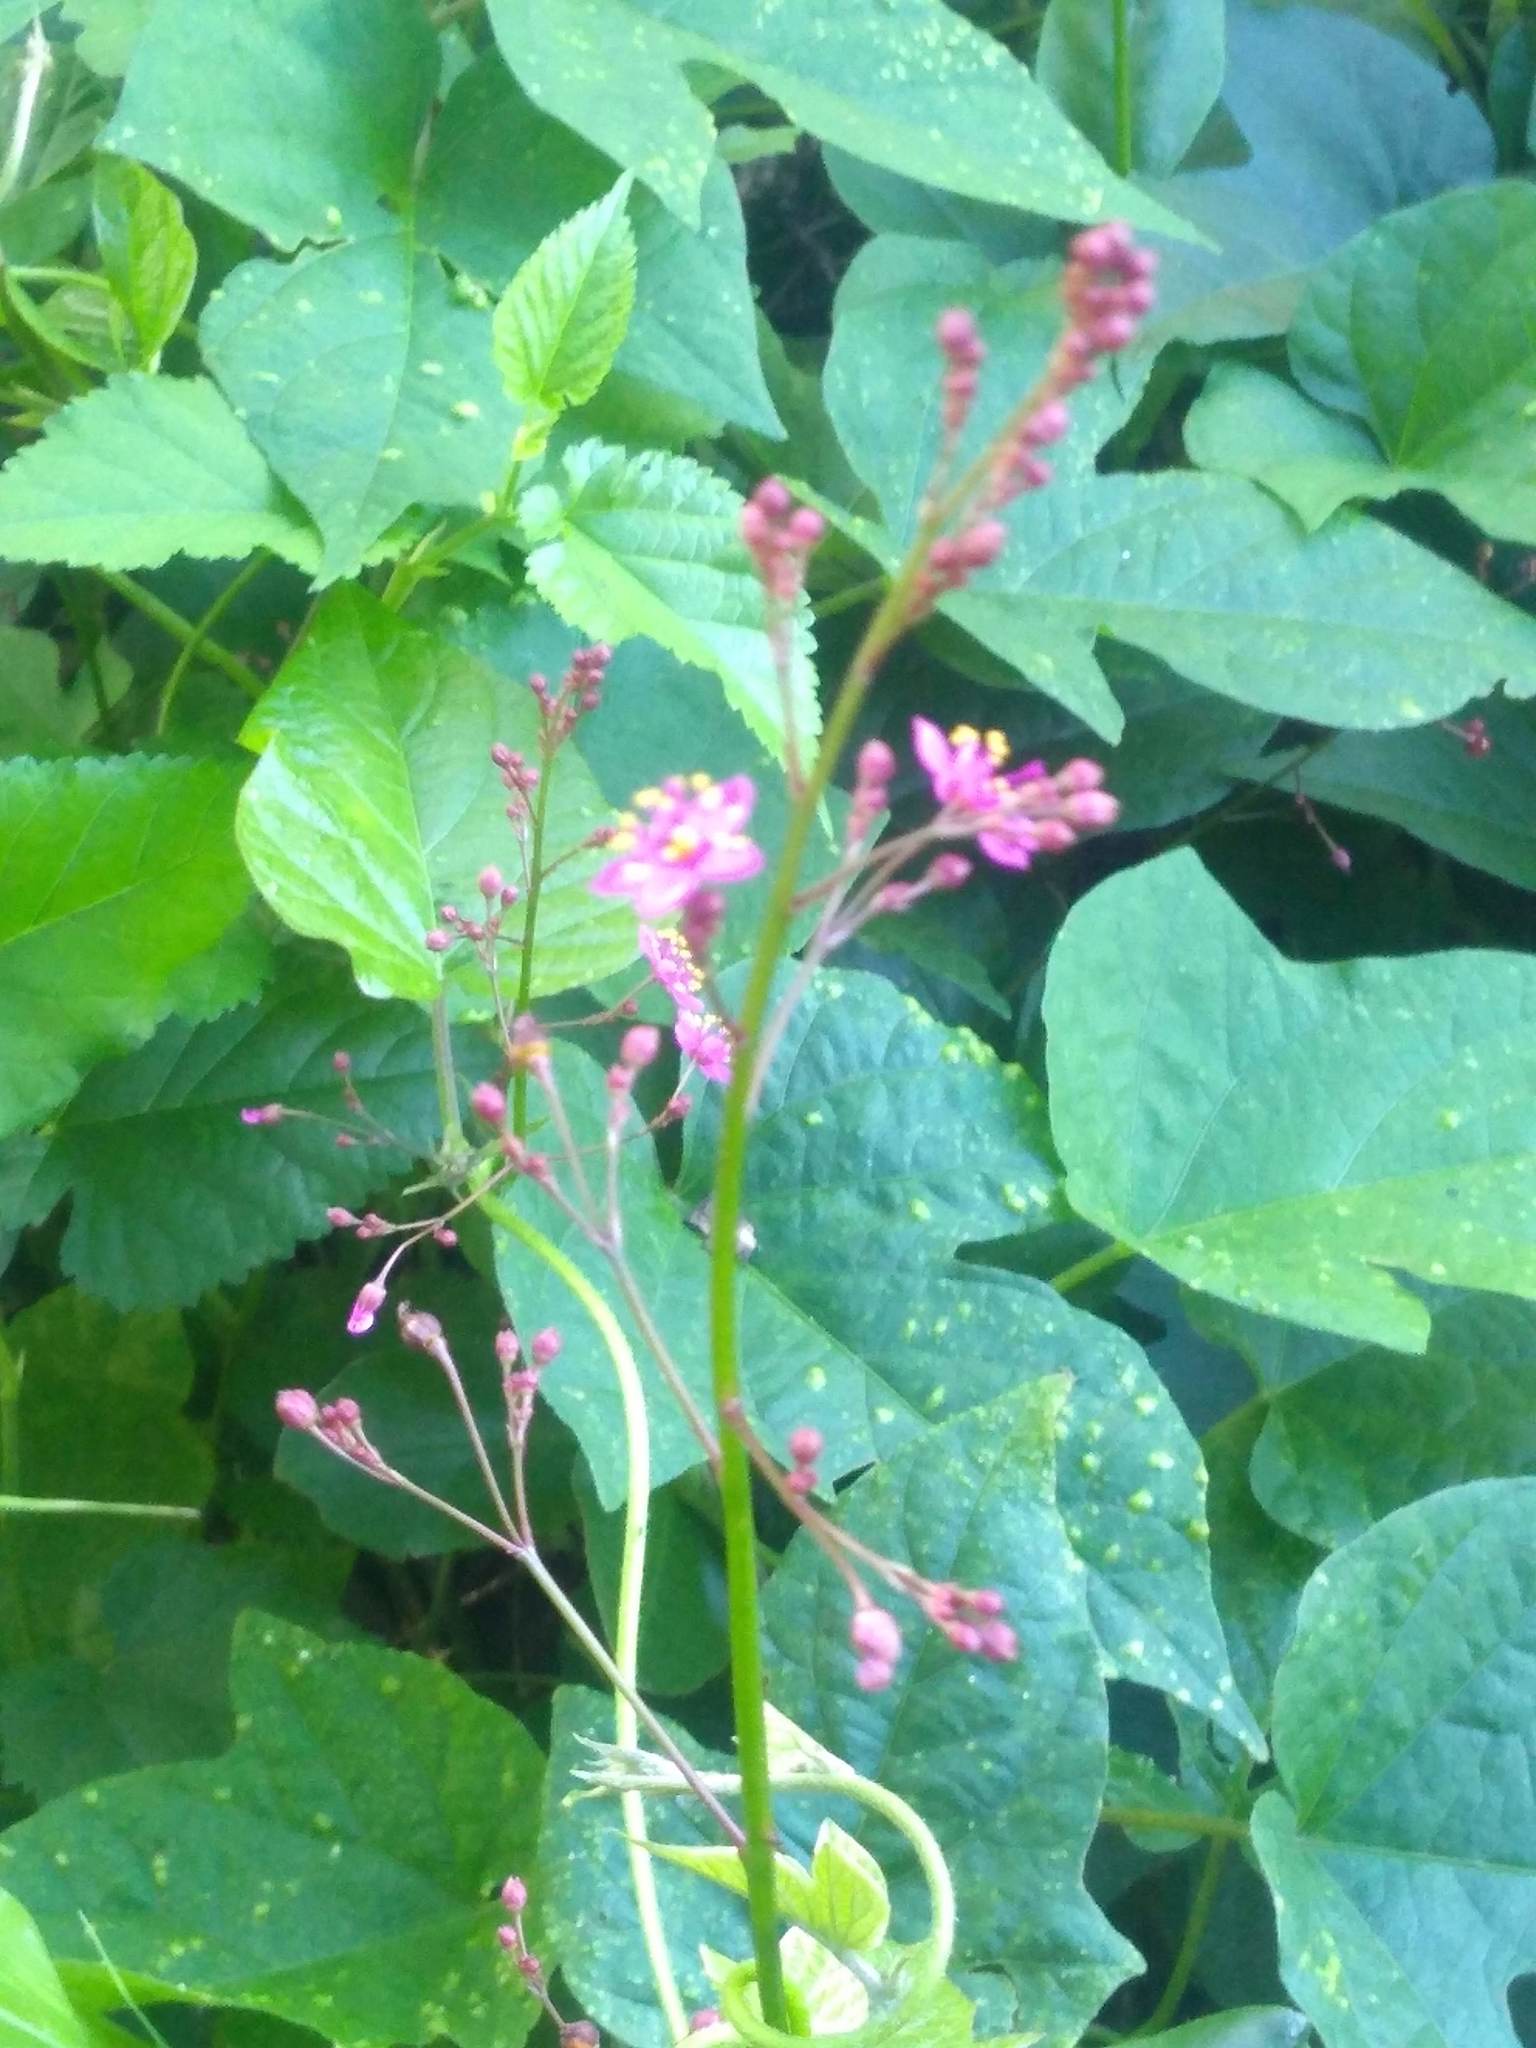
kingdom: Plantae
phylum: Tracheophyta
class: Magnoliopsida
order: Caryophyllales
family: Talinaceae
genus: Talinum
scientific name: Talinum paniculatum
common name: Jewels of opar
